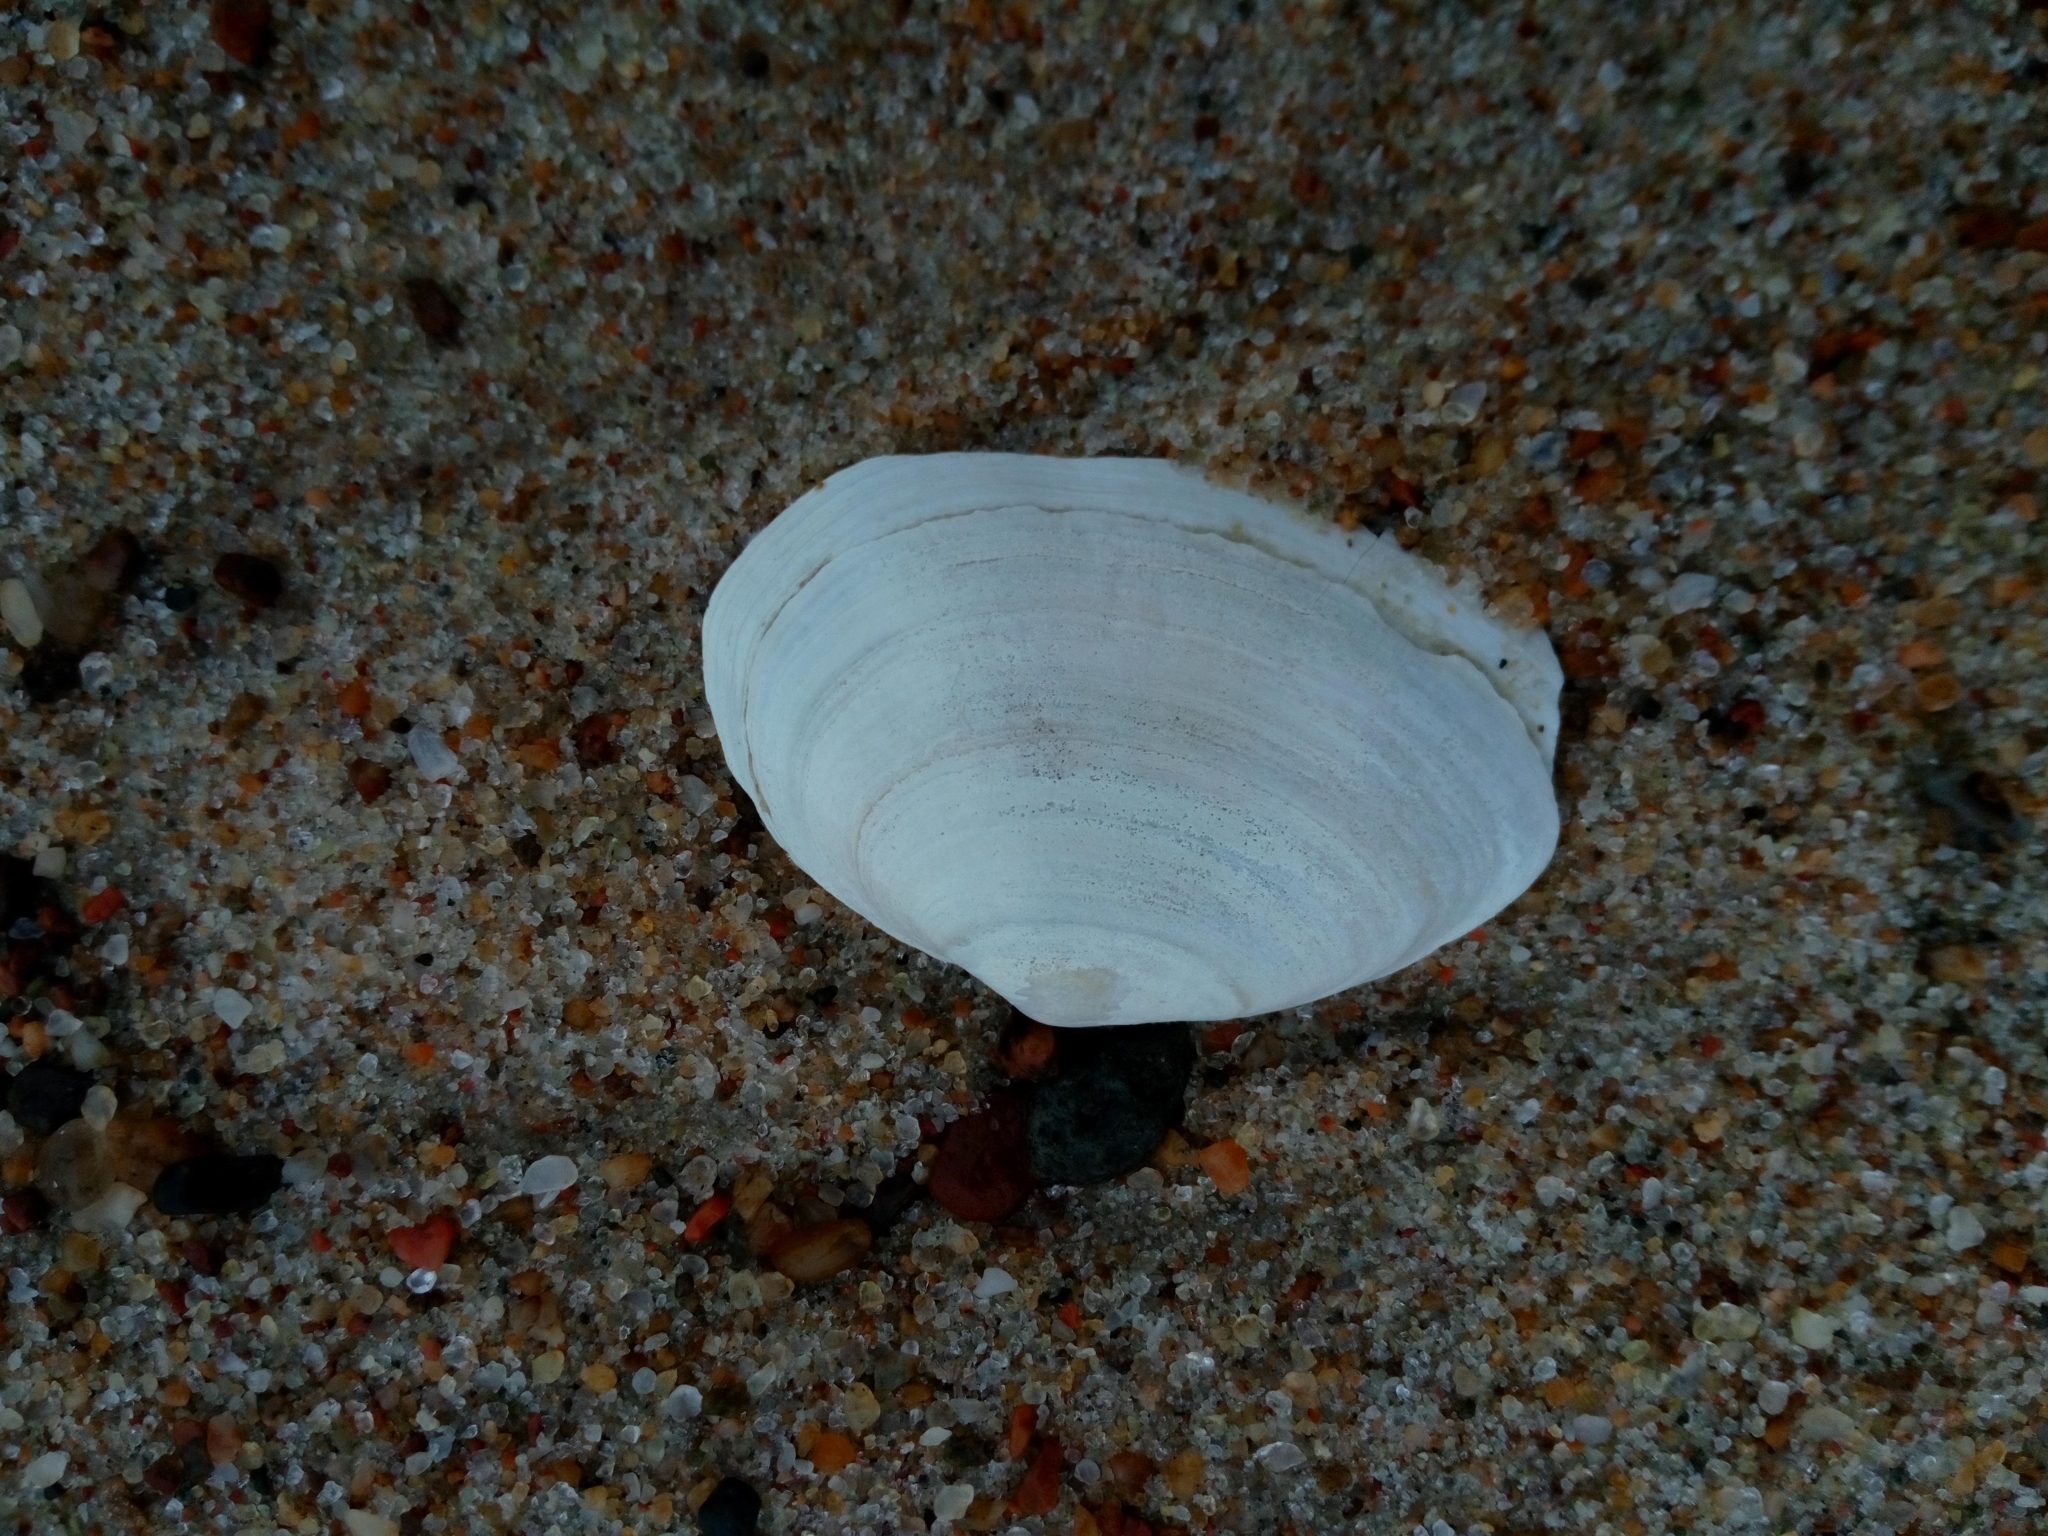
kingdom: Animalia
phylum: Mollusca
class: Bivalvia
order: Myida
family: Myidae
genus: Mya
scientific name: Mya arenaria
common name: Soft-shelled clam
